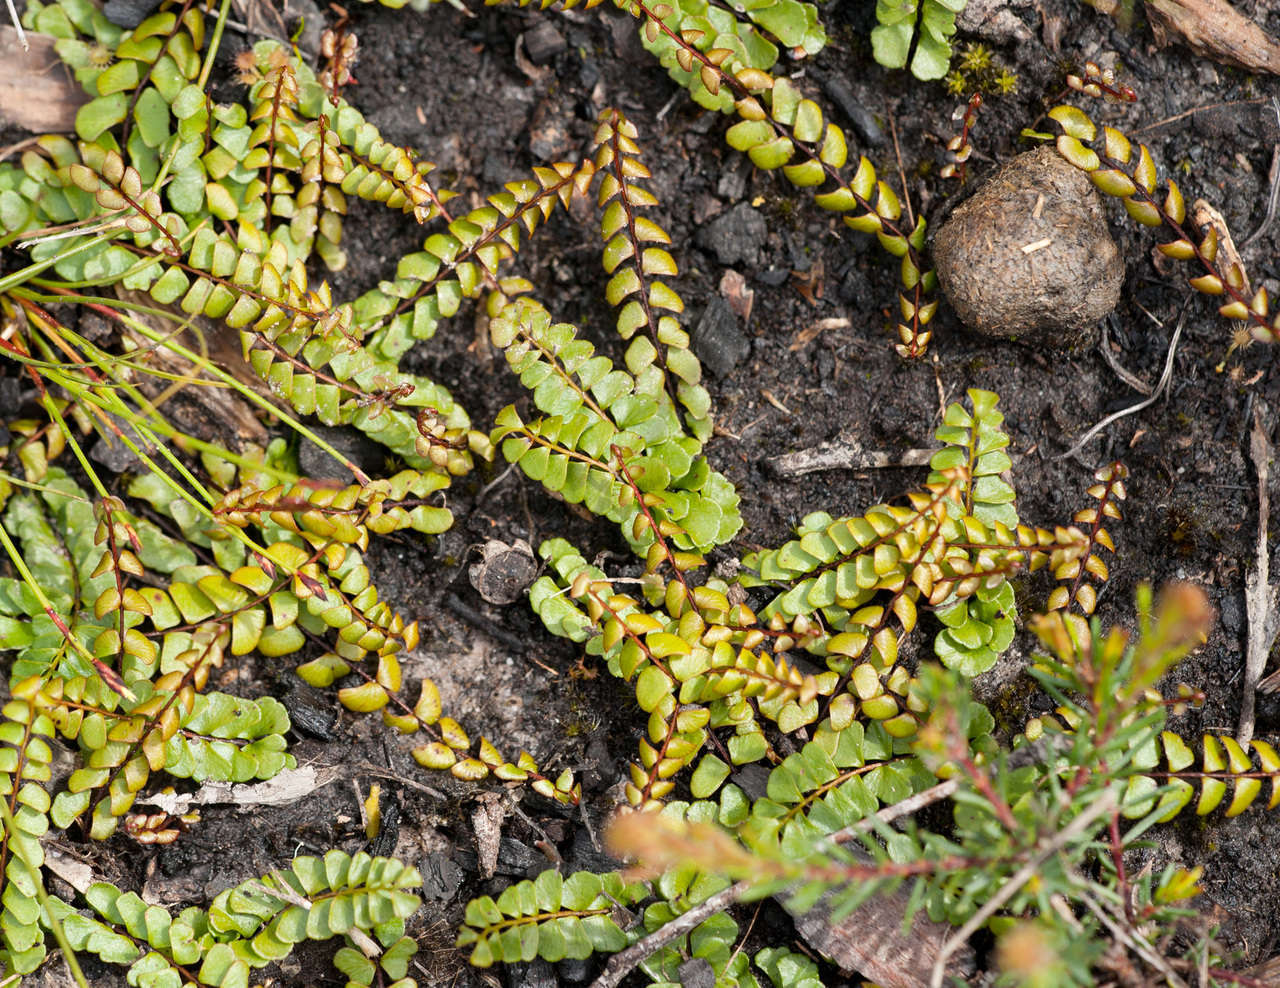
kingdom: Plantae
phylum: Tracheophyta
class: Polypodiopsida
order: Polypodiales
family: Lindsaeaceae
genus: Lindsaea
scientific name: Lindsaea linearis
